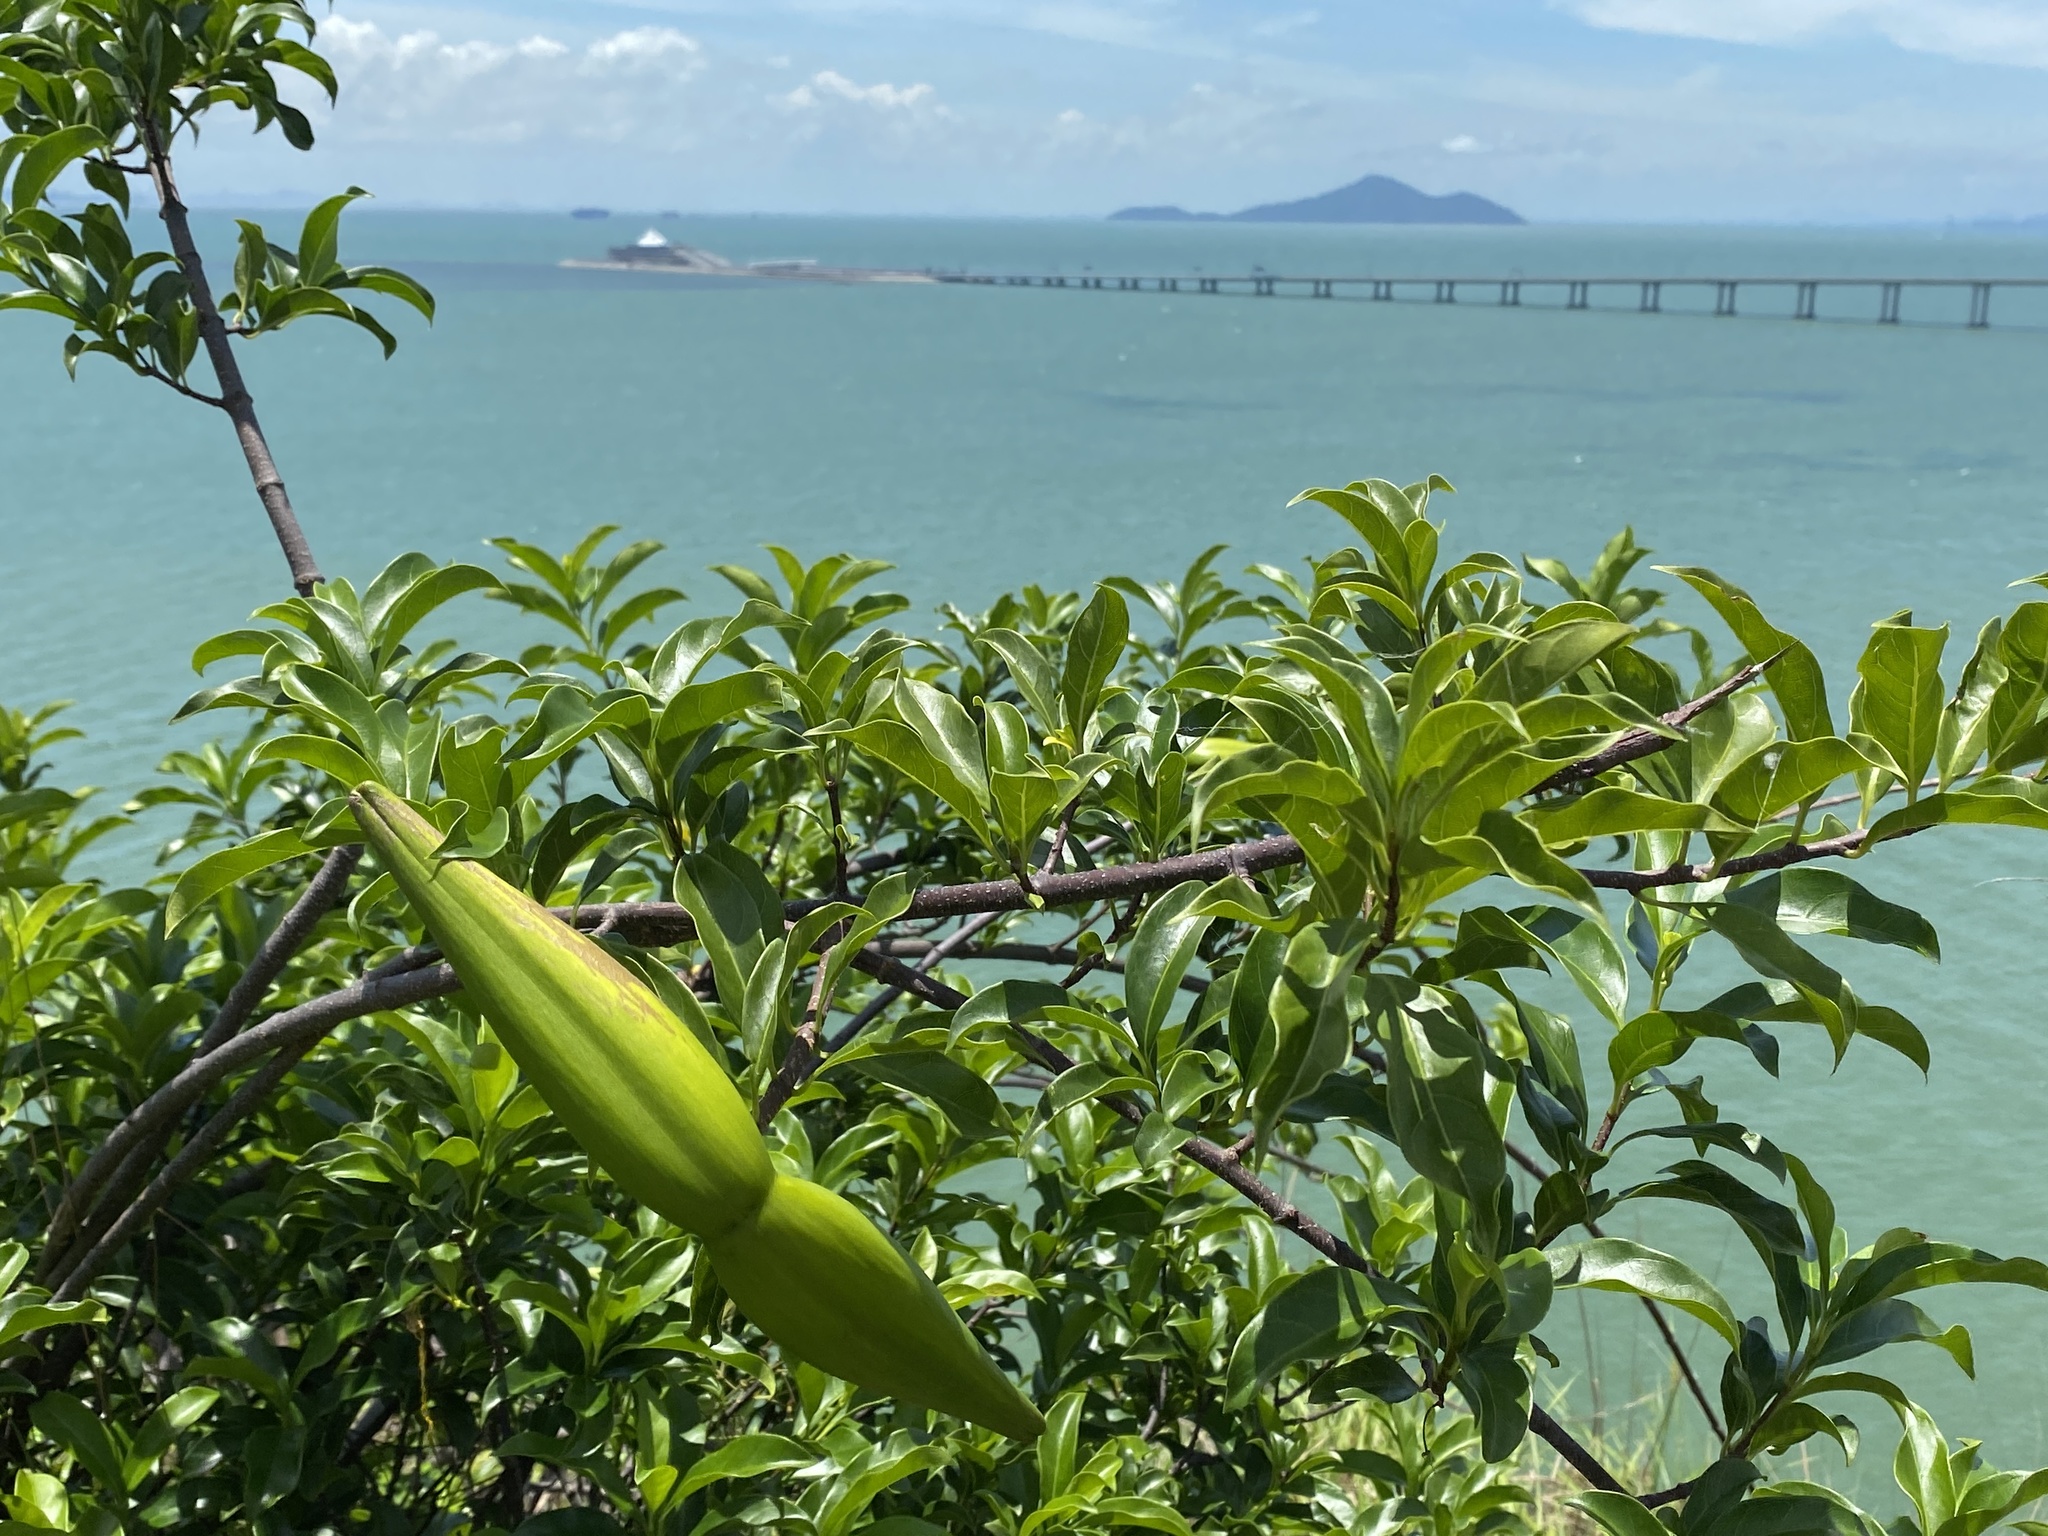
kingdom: Plantae
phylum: Tracheophyta
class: Magnoliopsida
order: Gentianales
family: Apocynaceae
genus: Strophanthus
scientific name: Strophanthus divaricatus
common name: Goat-horns
